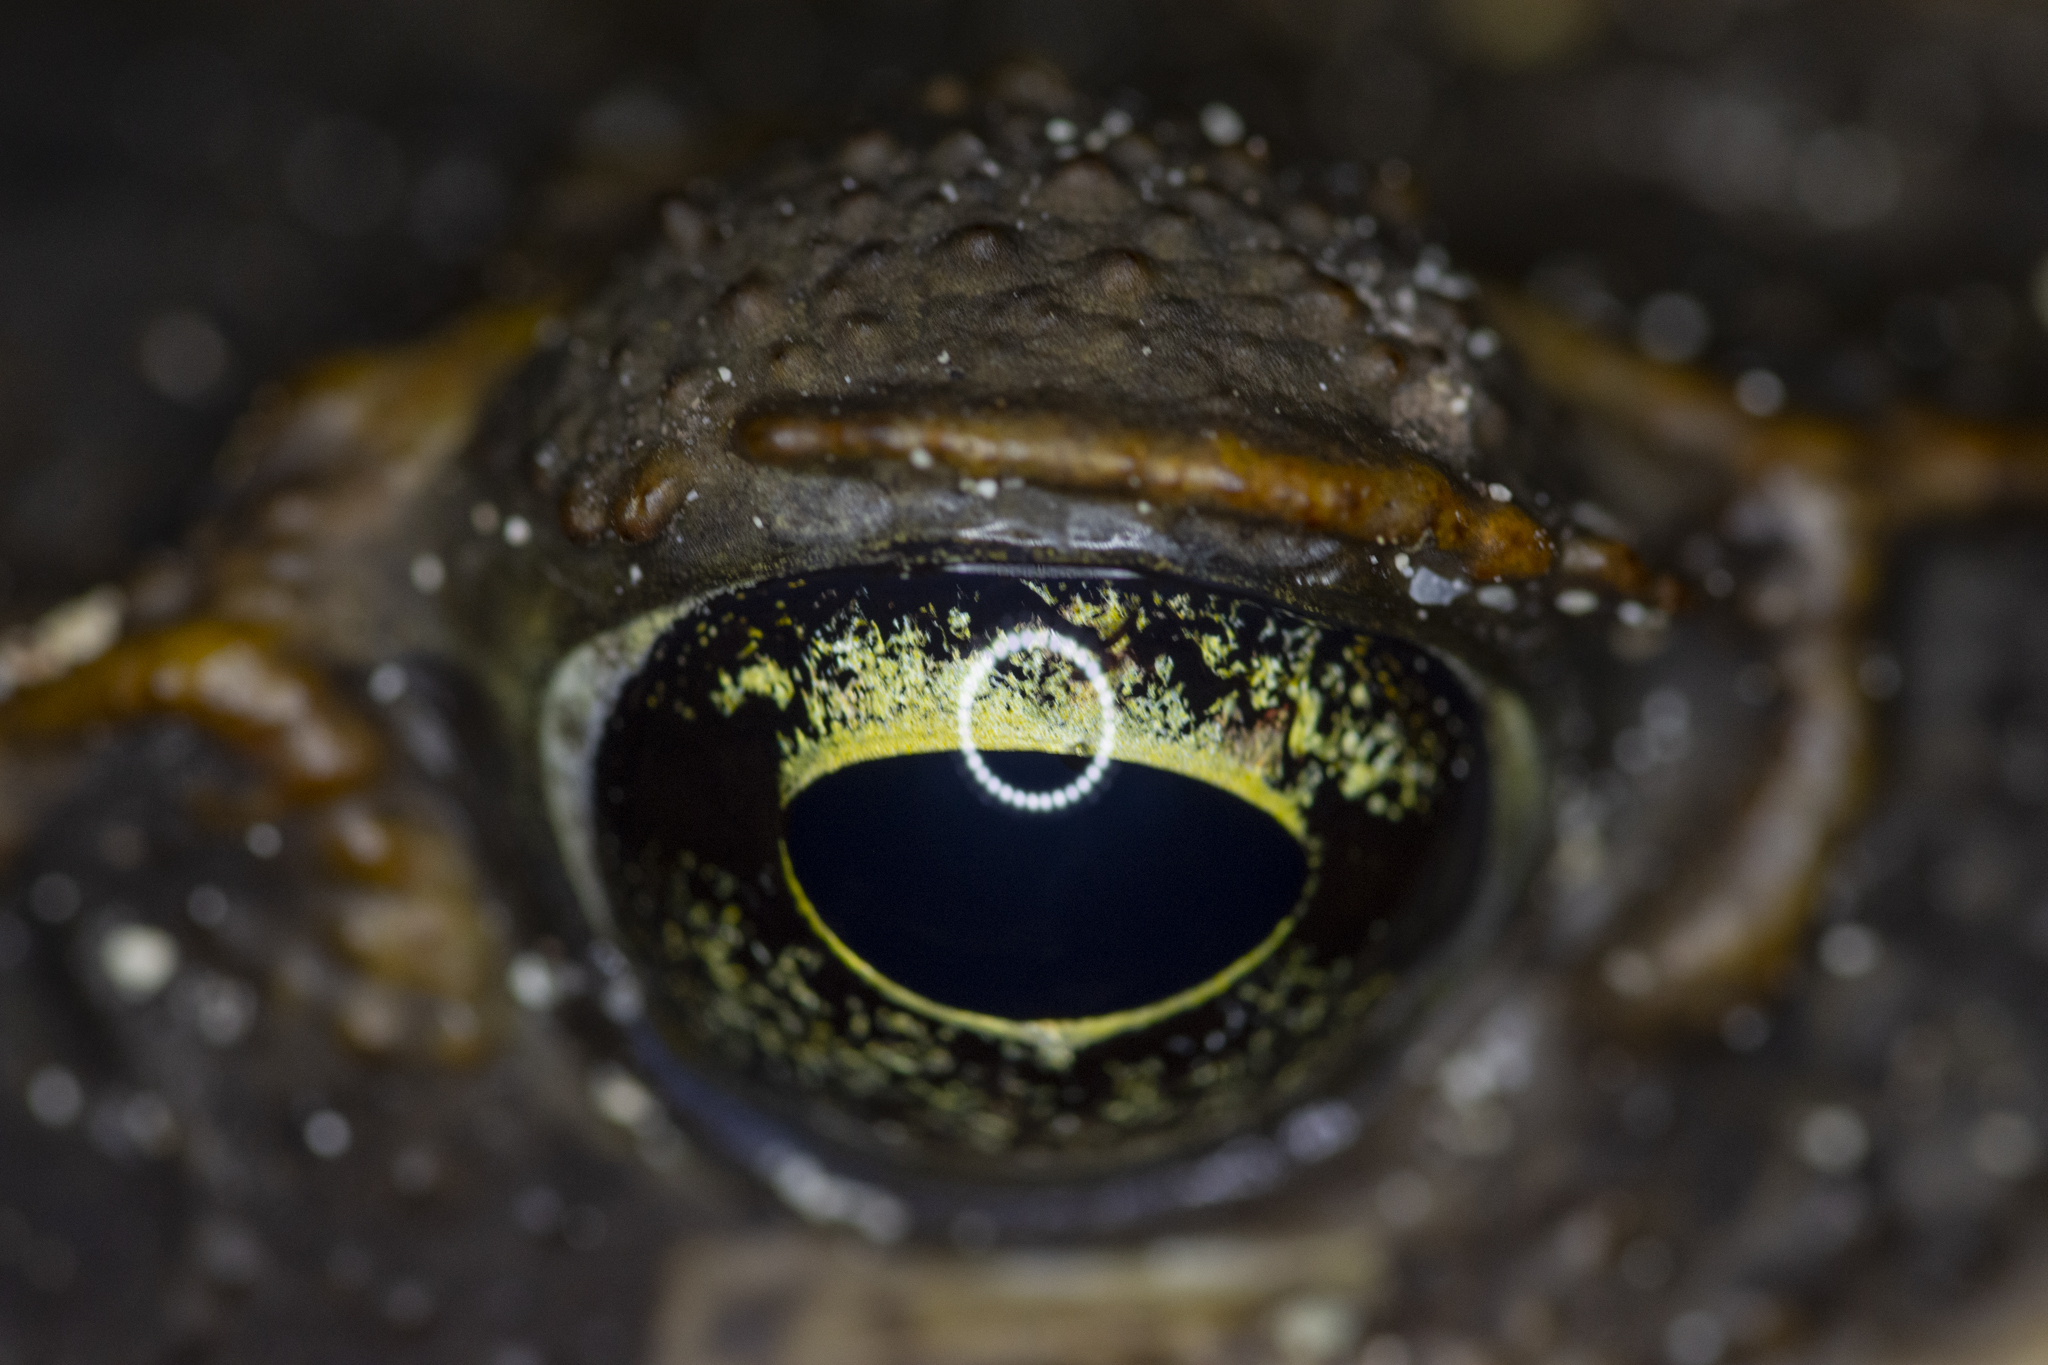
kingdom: Animalia
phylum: Chordata
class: Amphibia
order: Anura
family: Bufonidae
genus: Rhinella
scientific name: Rhinella marina
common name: Cane toad
